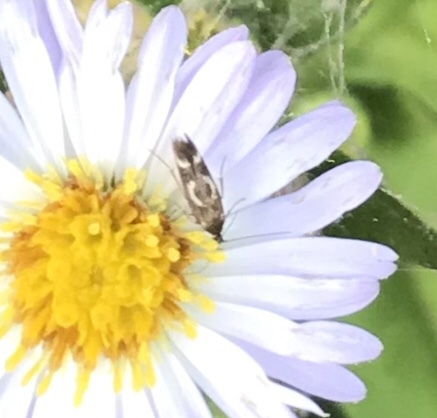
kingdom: Animalia
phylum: Arthropoda
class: Insecta
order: Lepidoptera
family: Scythrididae
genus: Scythris
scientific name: Scythris trivinctella
